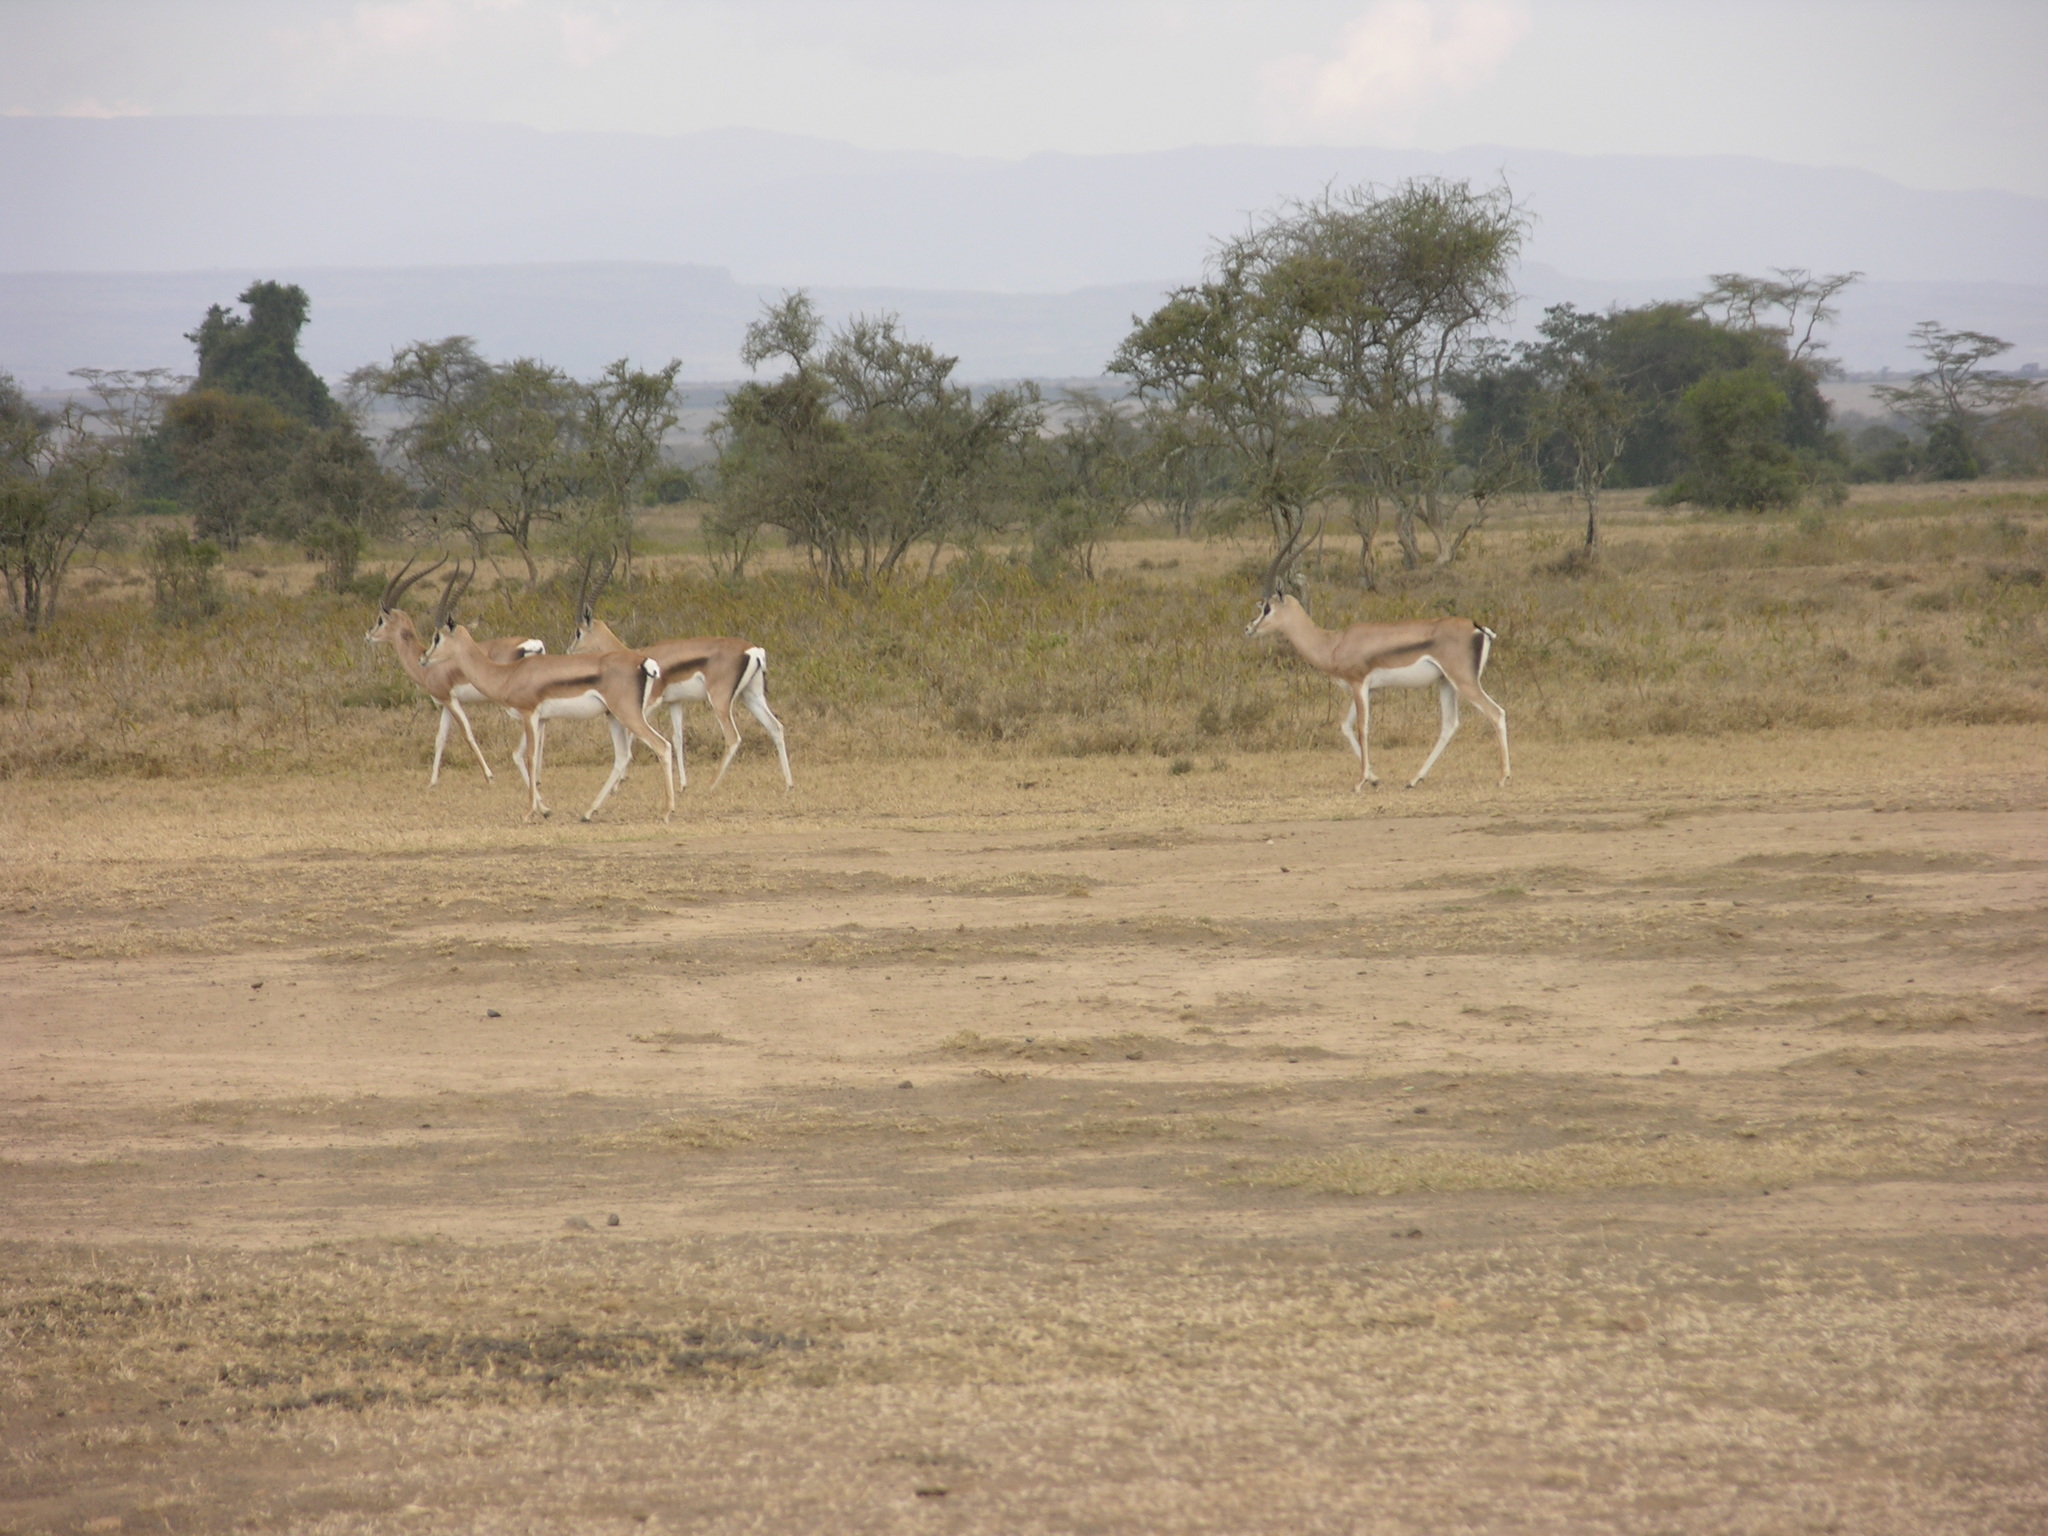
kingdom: Animalia
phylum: Chordata
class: Mammalia
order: Artiodactyla
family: Bovidae
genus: Nanger
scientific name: Nanger granti
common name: Grant's gazelle
